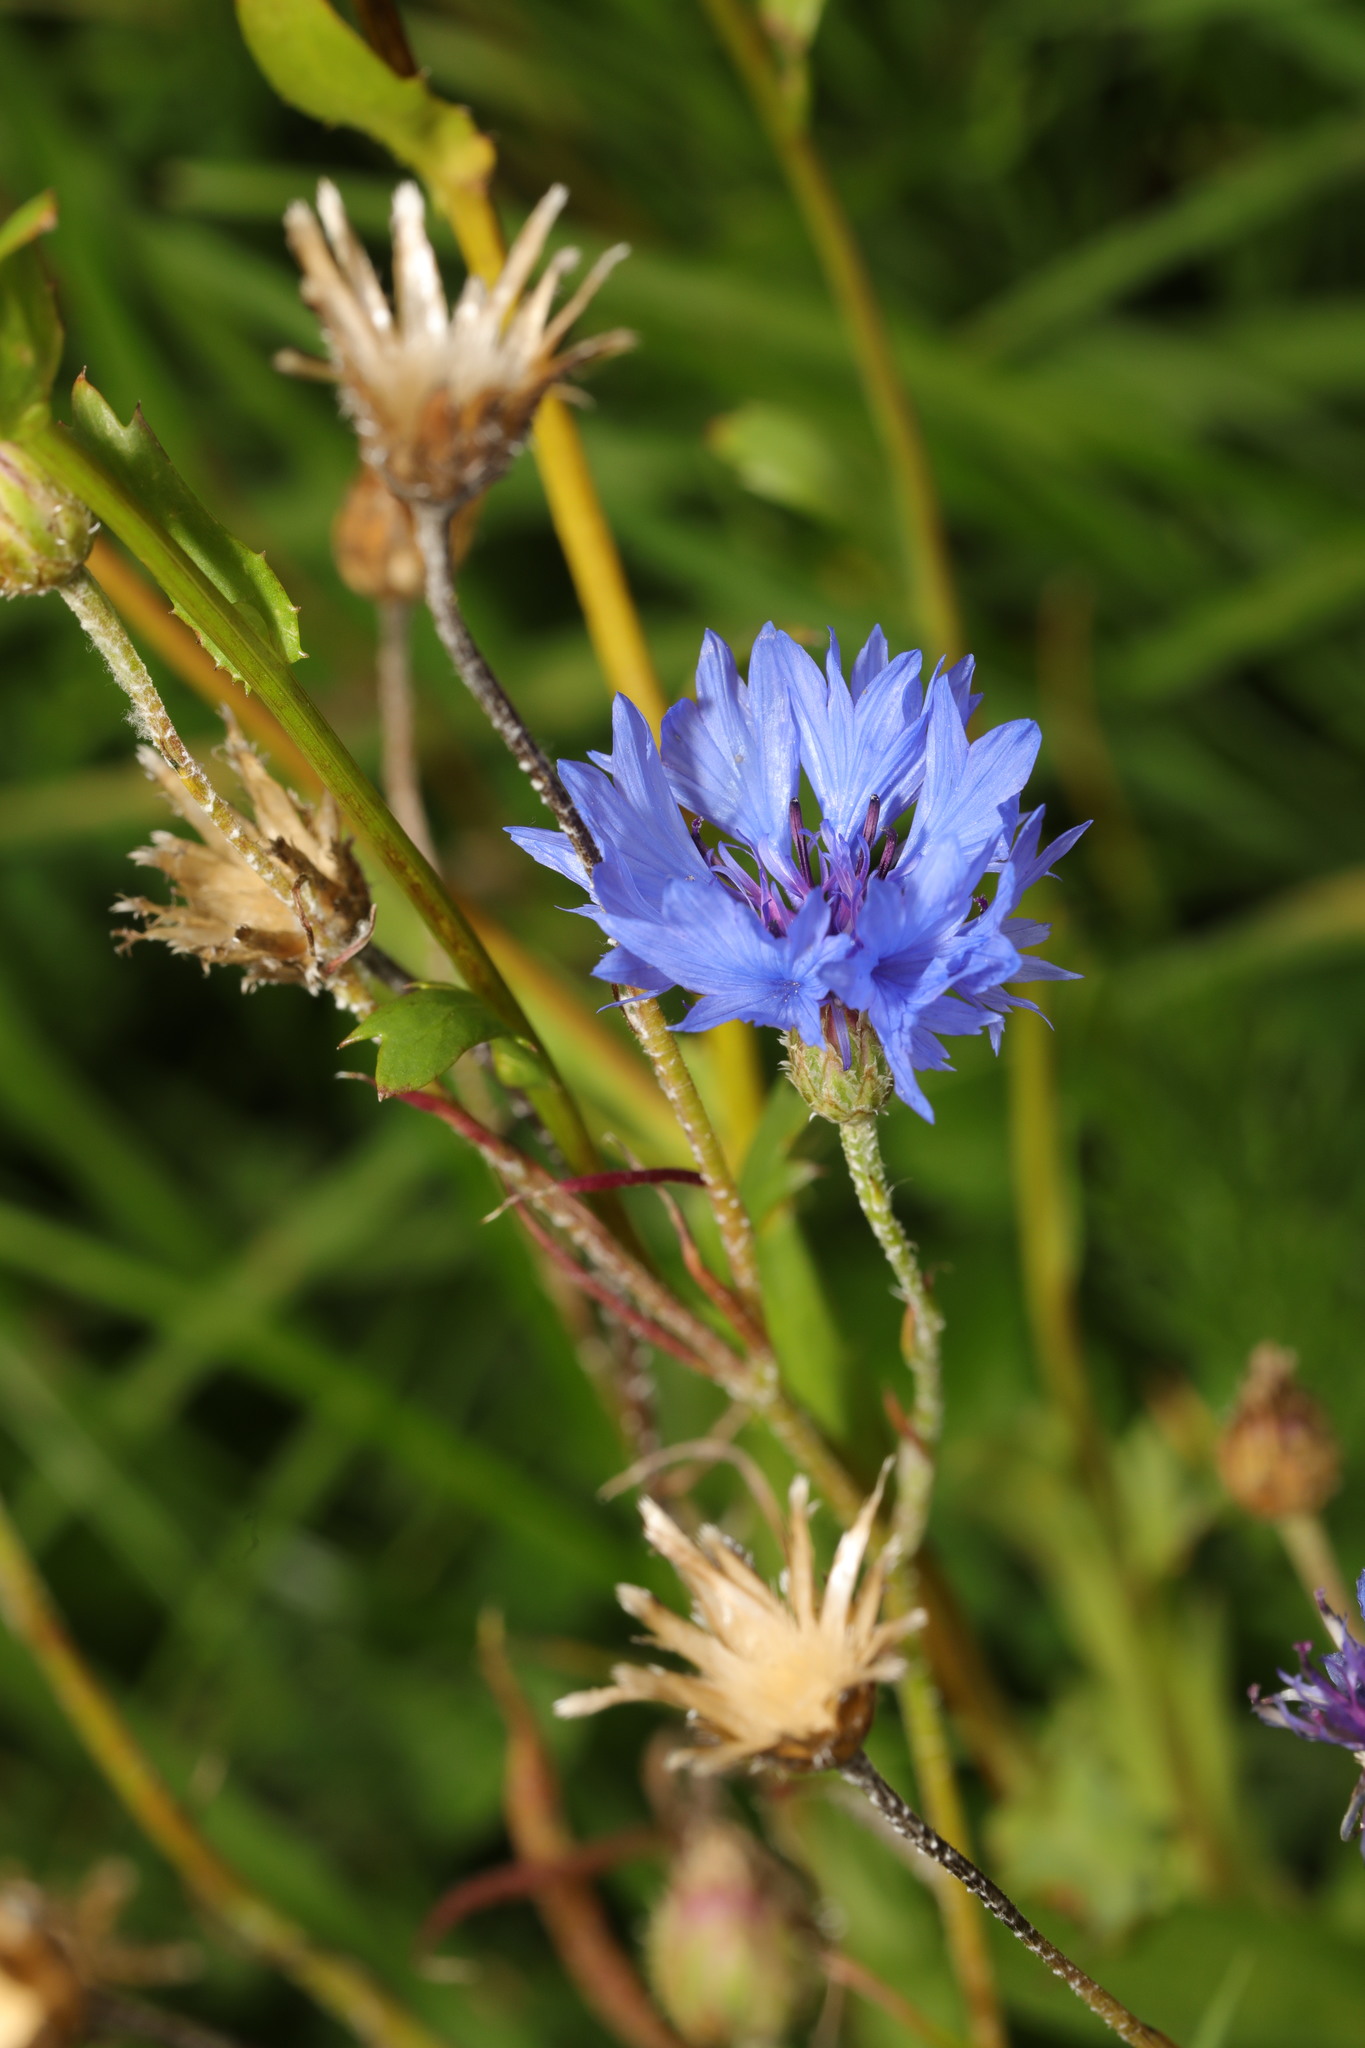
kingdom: Plantae
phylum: Tracheophyta
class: Magnoliopsida
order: Asterales
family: Asteraceae
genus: Centaurea
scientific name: Centaurea cyanus
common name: Cornflower
